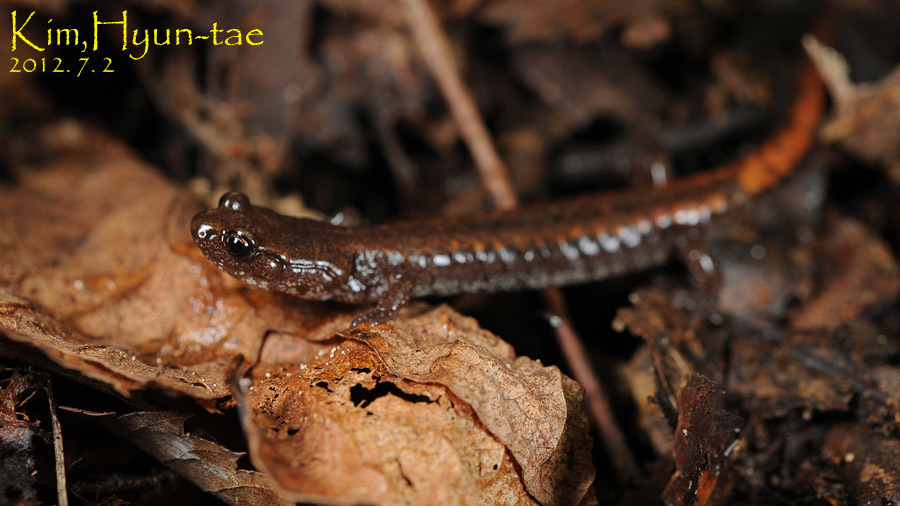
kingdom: Animalia
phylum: Chordata
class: Amphibia
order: Caudata
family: Plethodontidae
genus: Karsenia
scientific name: Karsenia koreana
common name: Korean crevice salamander
